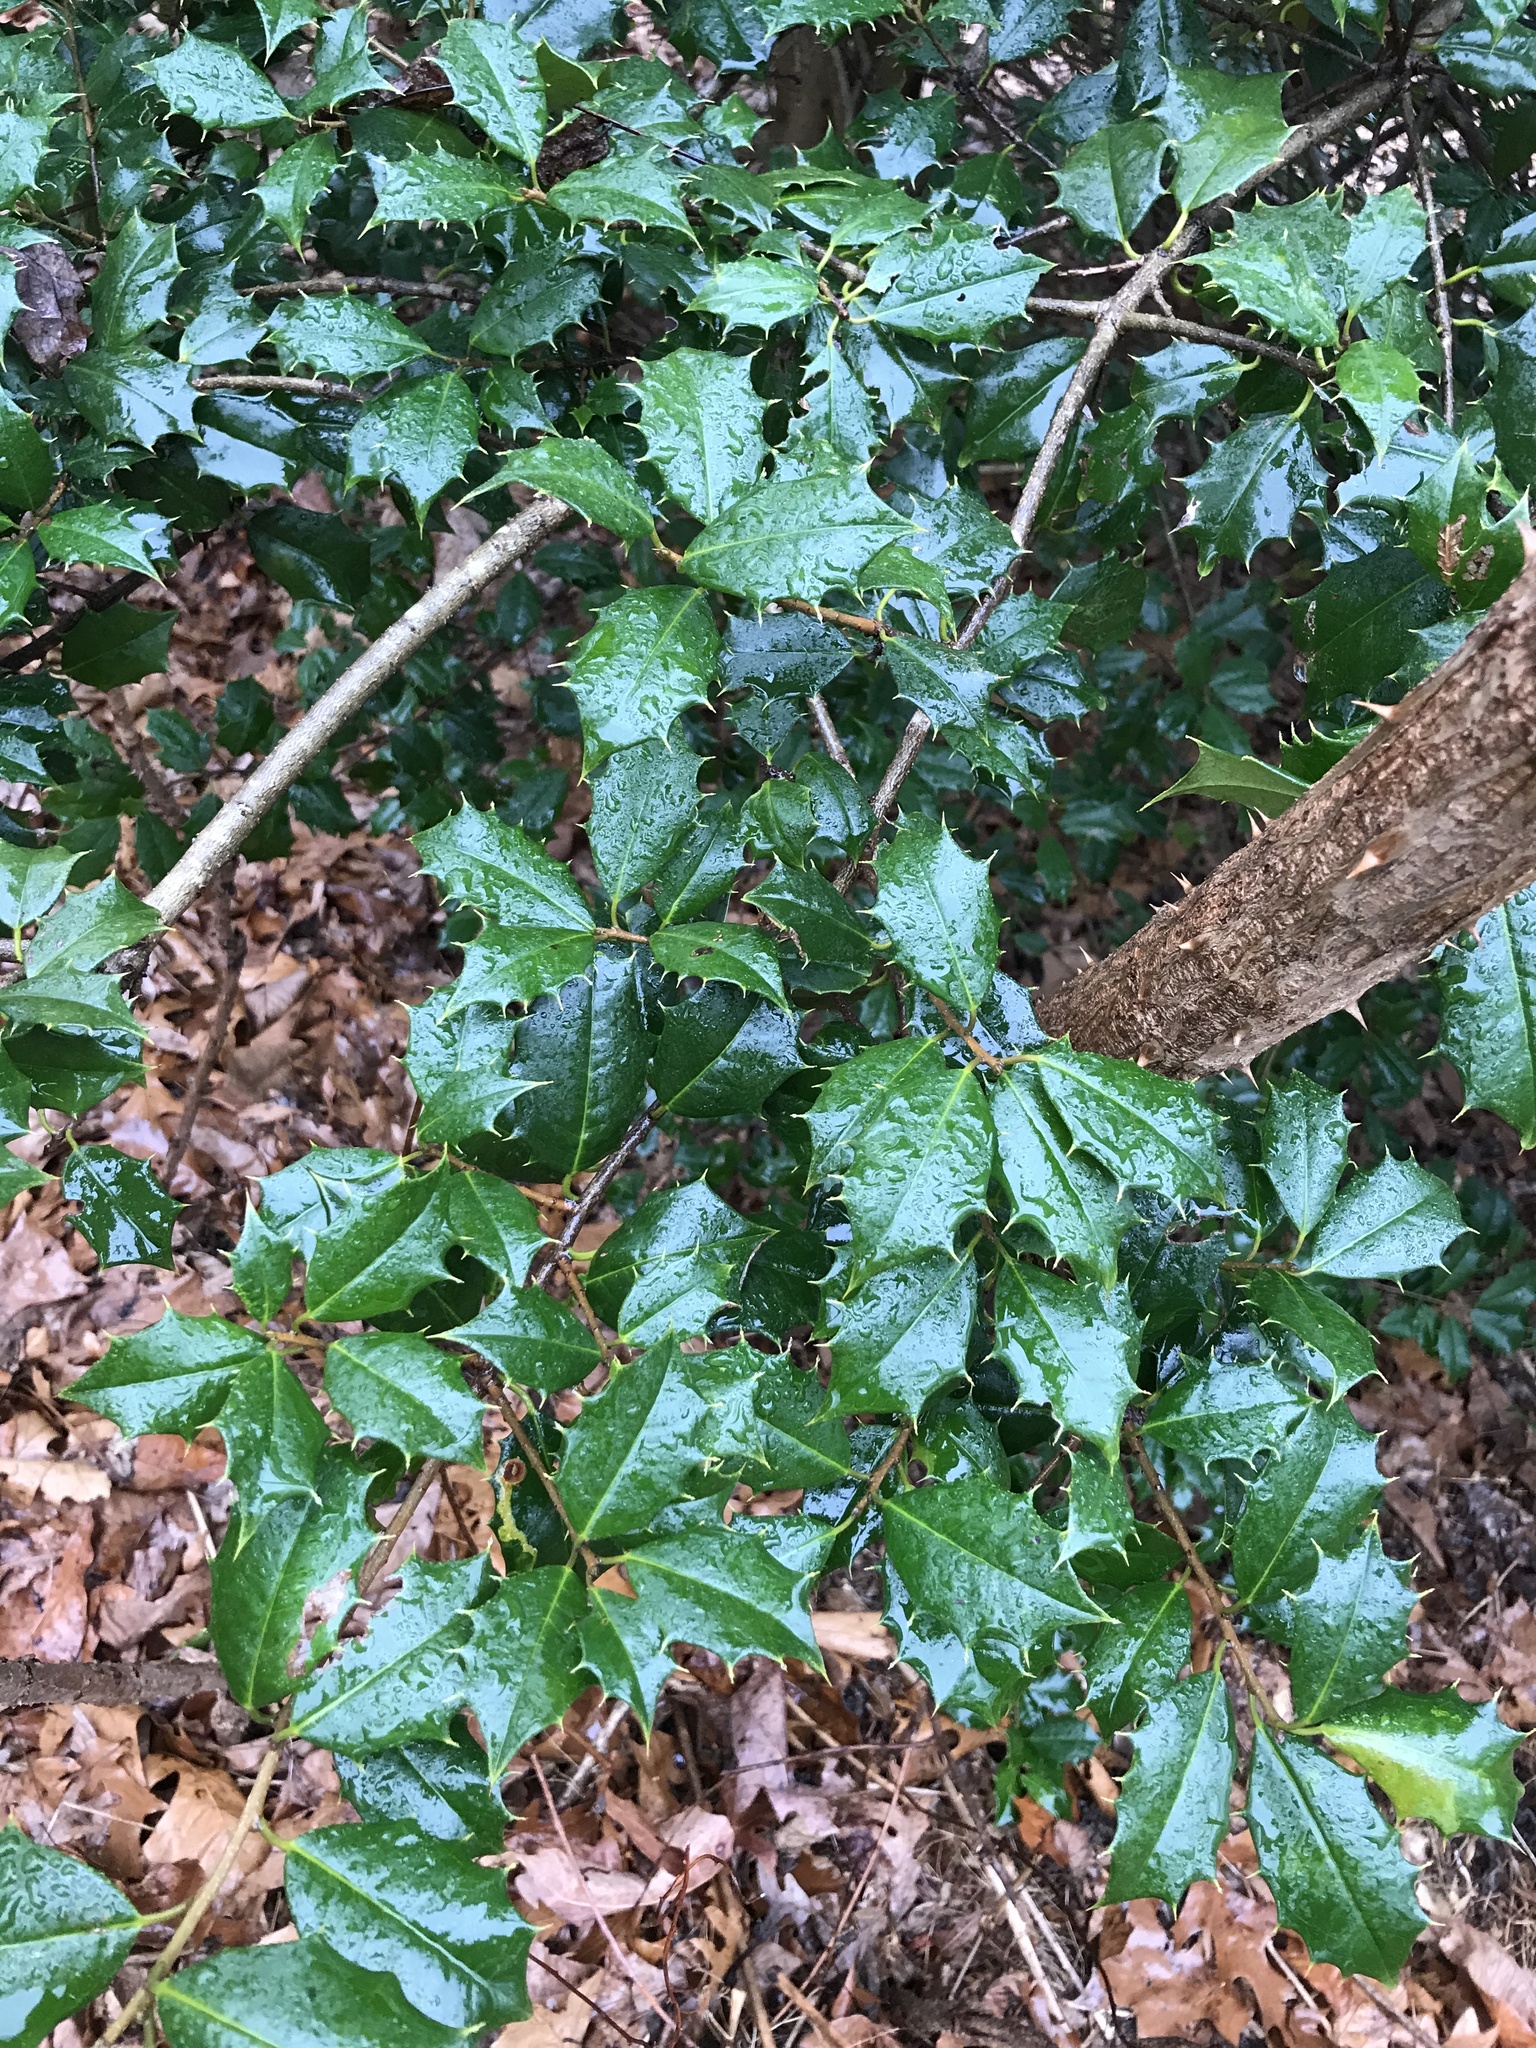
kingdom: Plantae
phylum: Tracheophyta
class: Magnoliopsida
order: Aquifoliales
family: Aquifoliaceae
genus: Ilex
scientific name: Ilex opaca
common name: American holly
